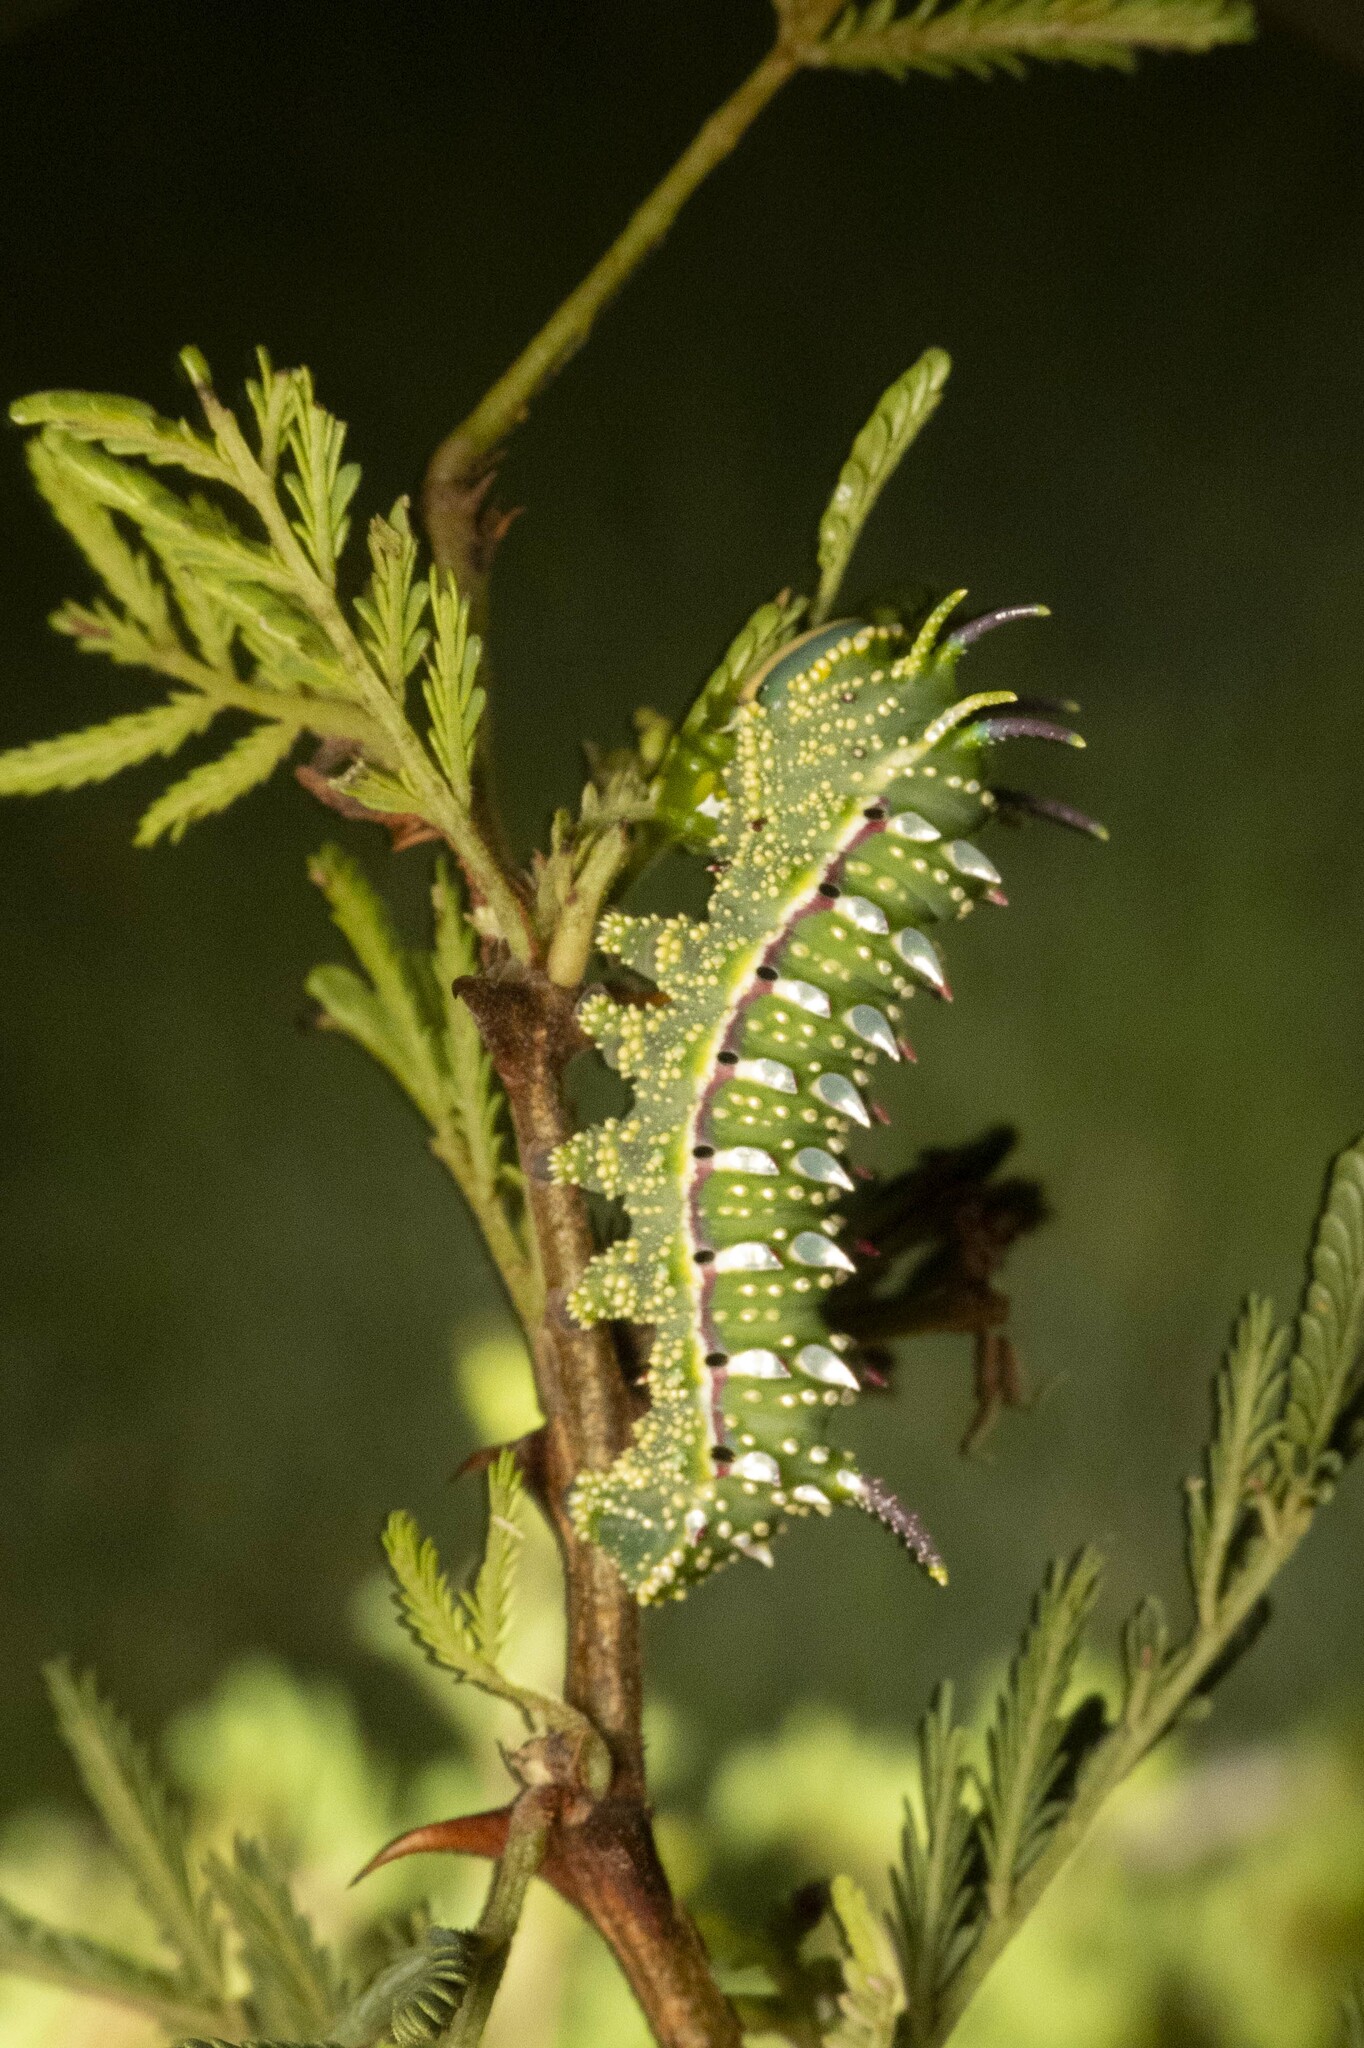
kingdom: Animalia
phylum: Arthropoda
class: Insecta
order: Lepidoptera
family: Saturniidae
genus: Syssphinx
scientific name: Syssphinx hubbardi
